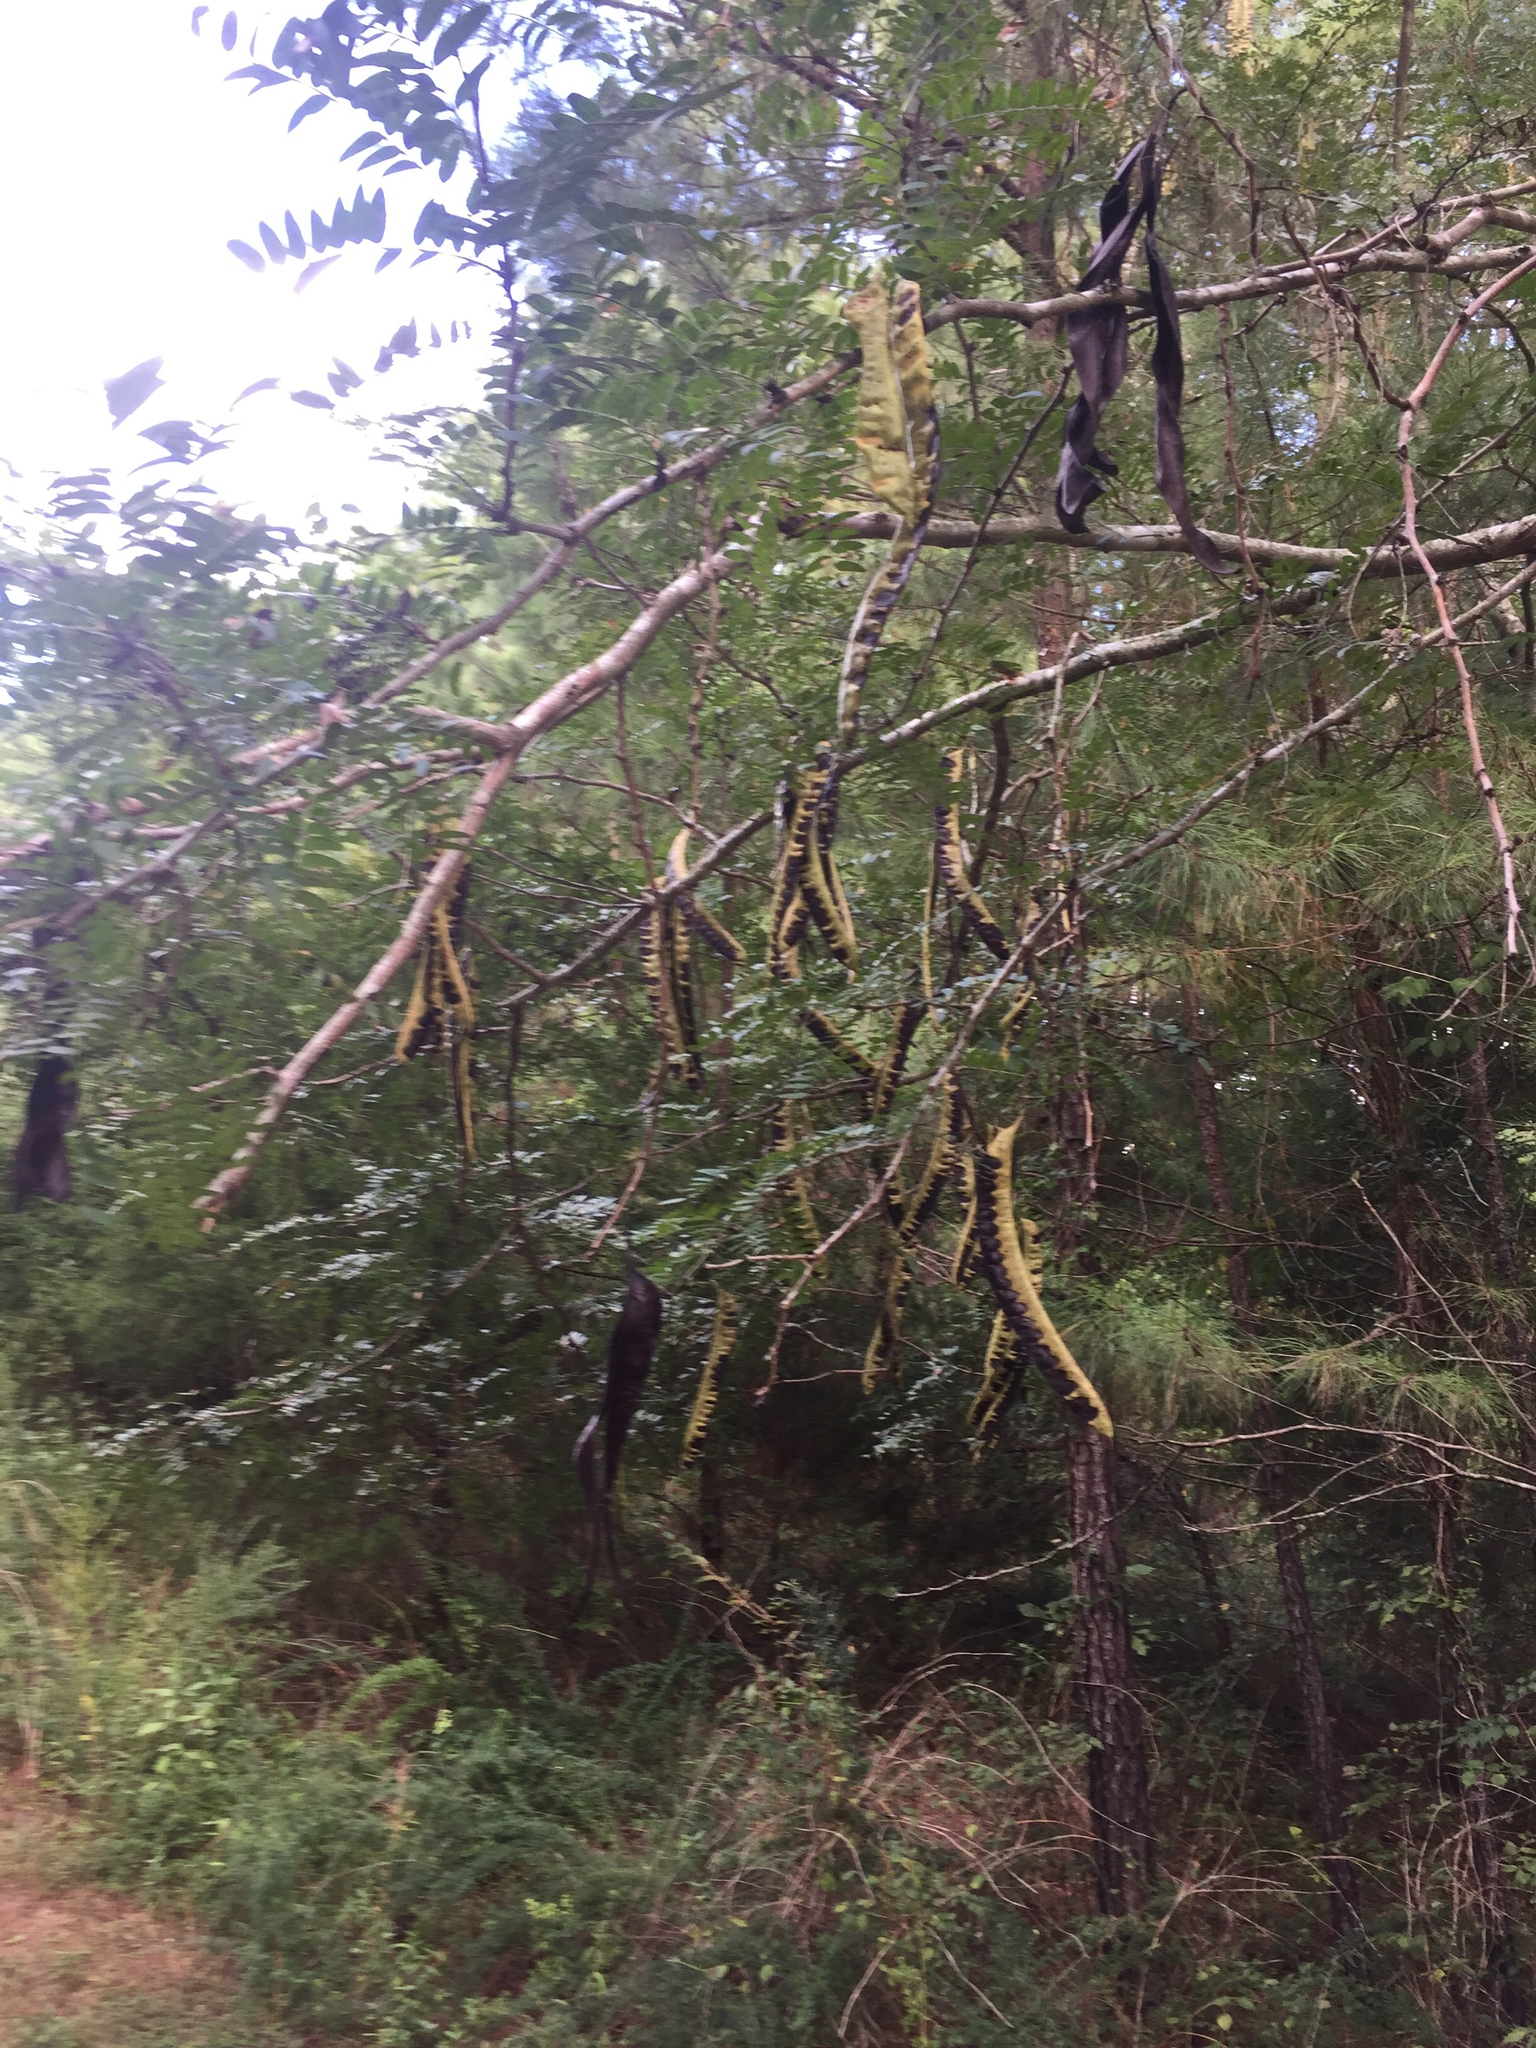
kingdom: Plantae
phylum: Tracheophyta
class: Magnoliopsida
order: Fabales
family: Fabaceae
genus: Gleditsia
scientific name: Gleditsia triacanthos
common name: Common honeylocust
